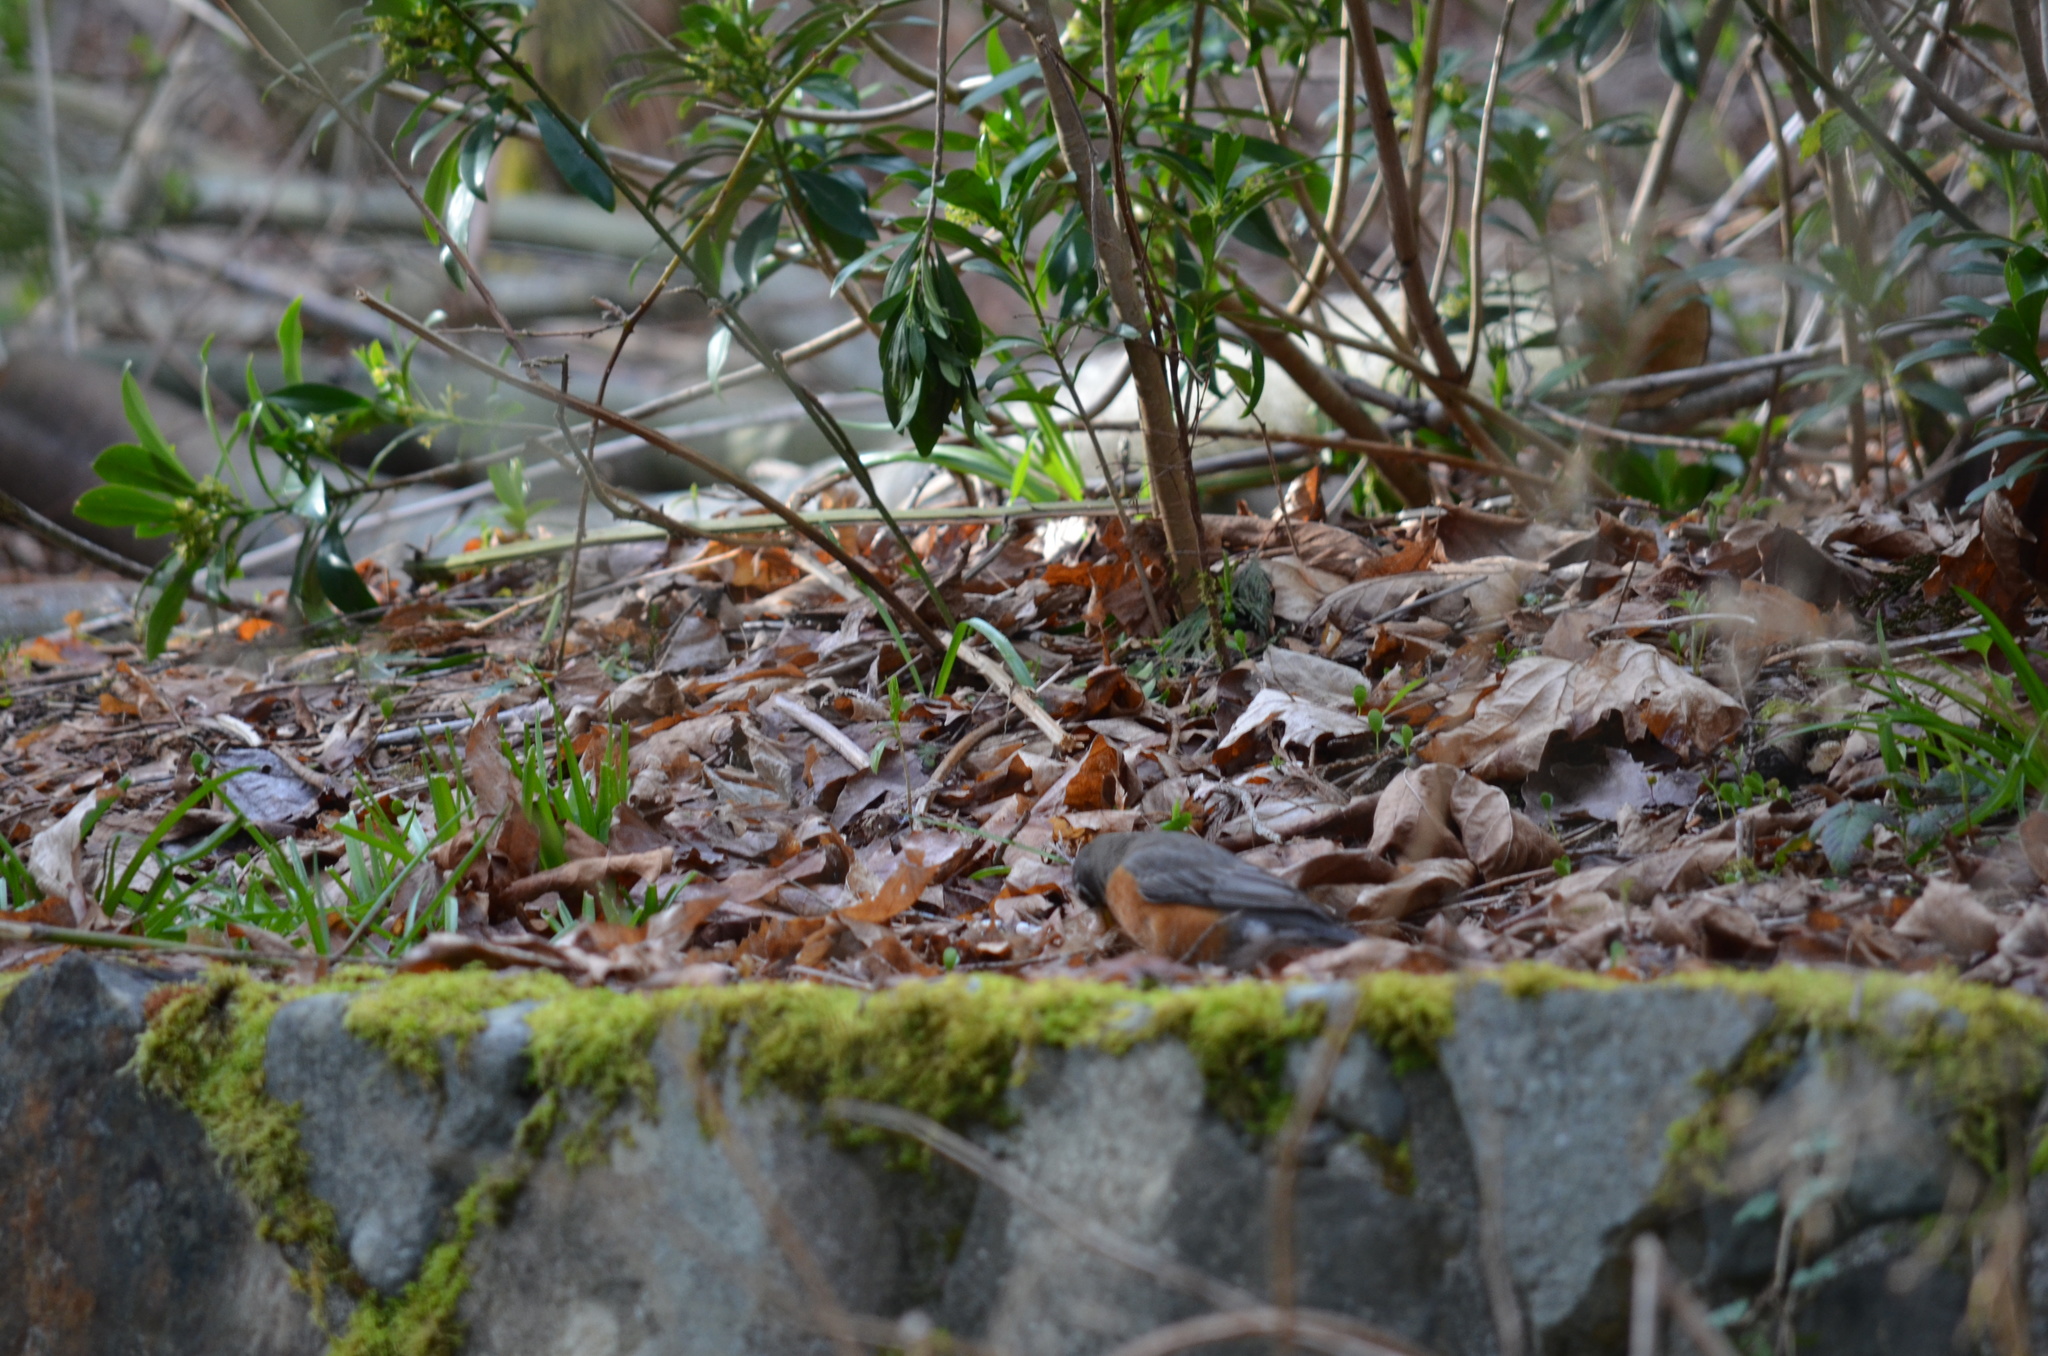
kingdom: Animalia
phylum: Chordata
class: Aves
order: Passeriformes
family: Turdidae
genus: Turdus
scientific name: Turdus migratorius
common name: American robin
